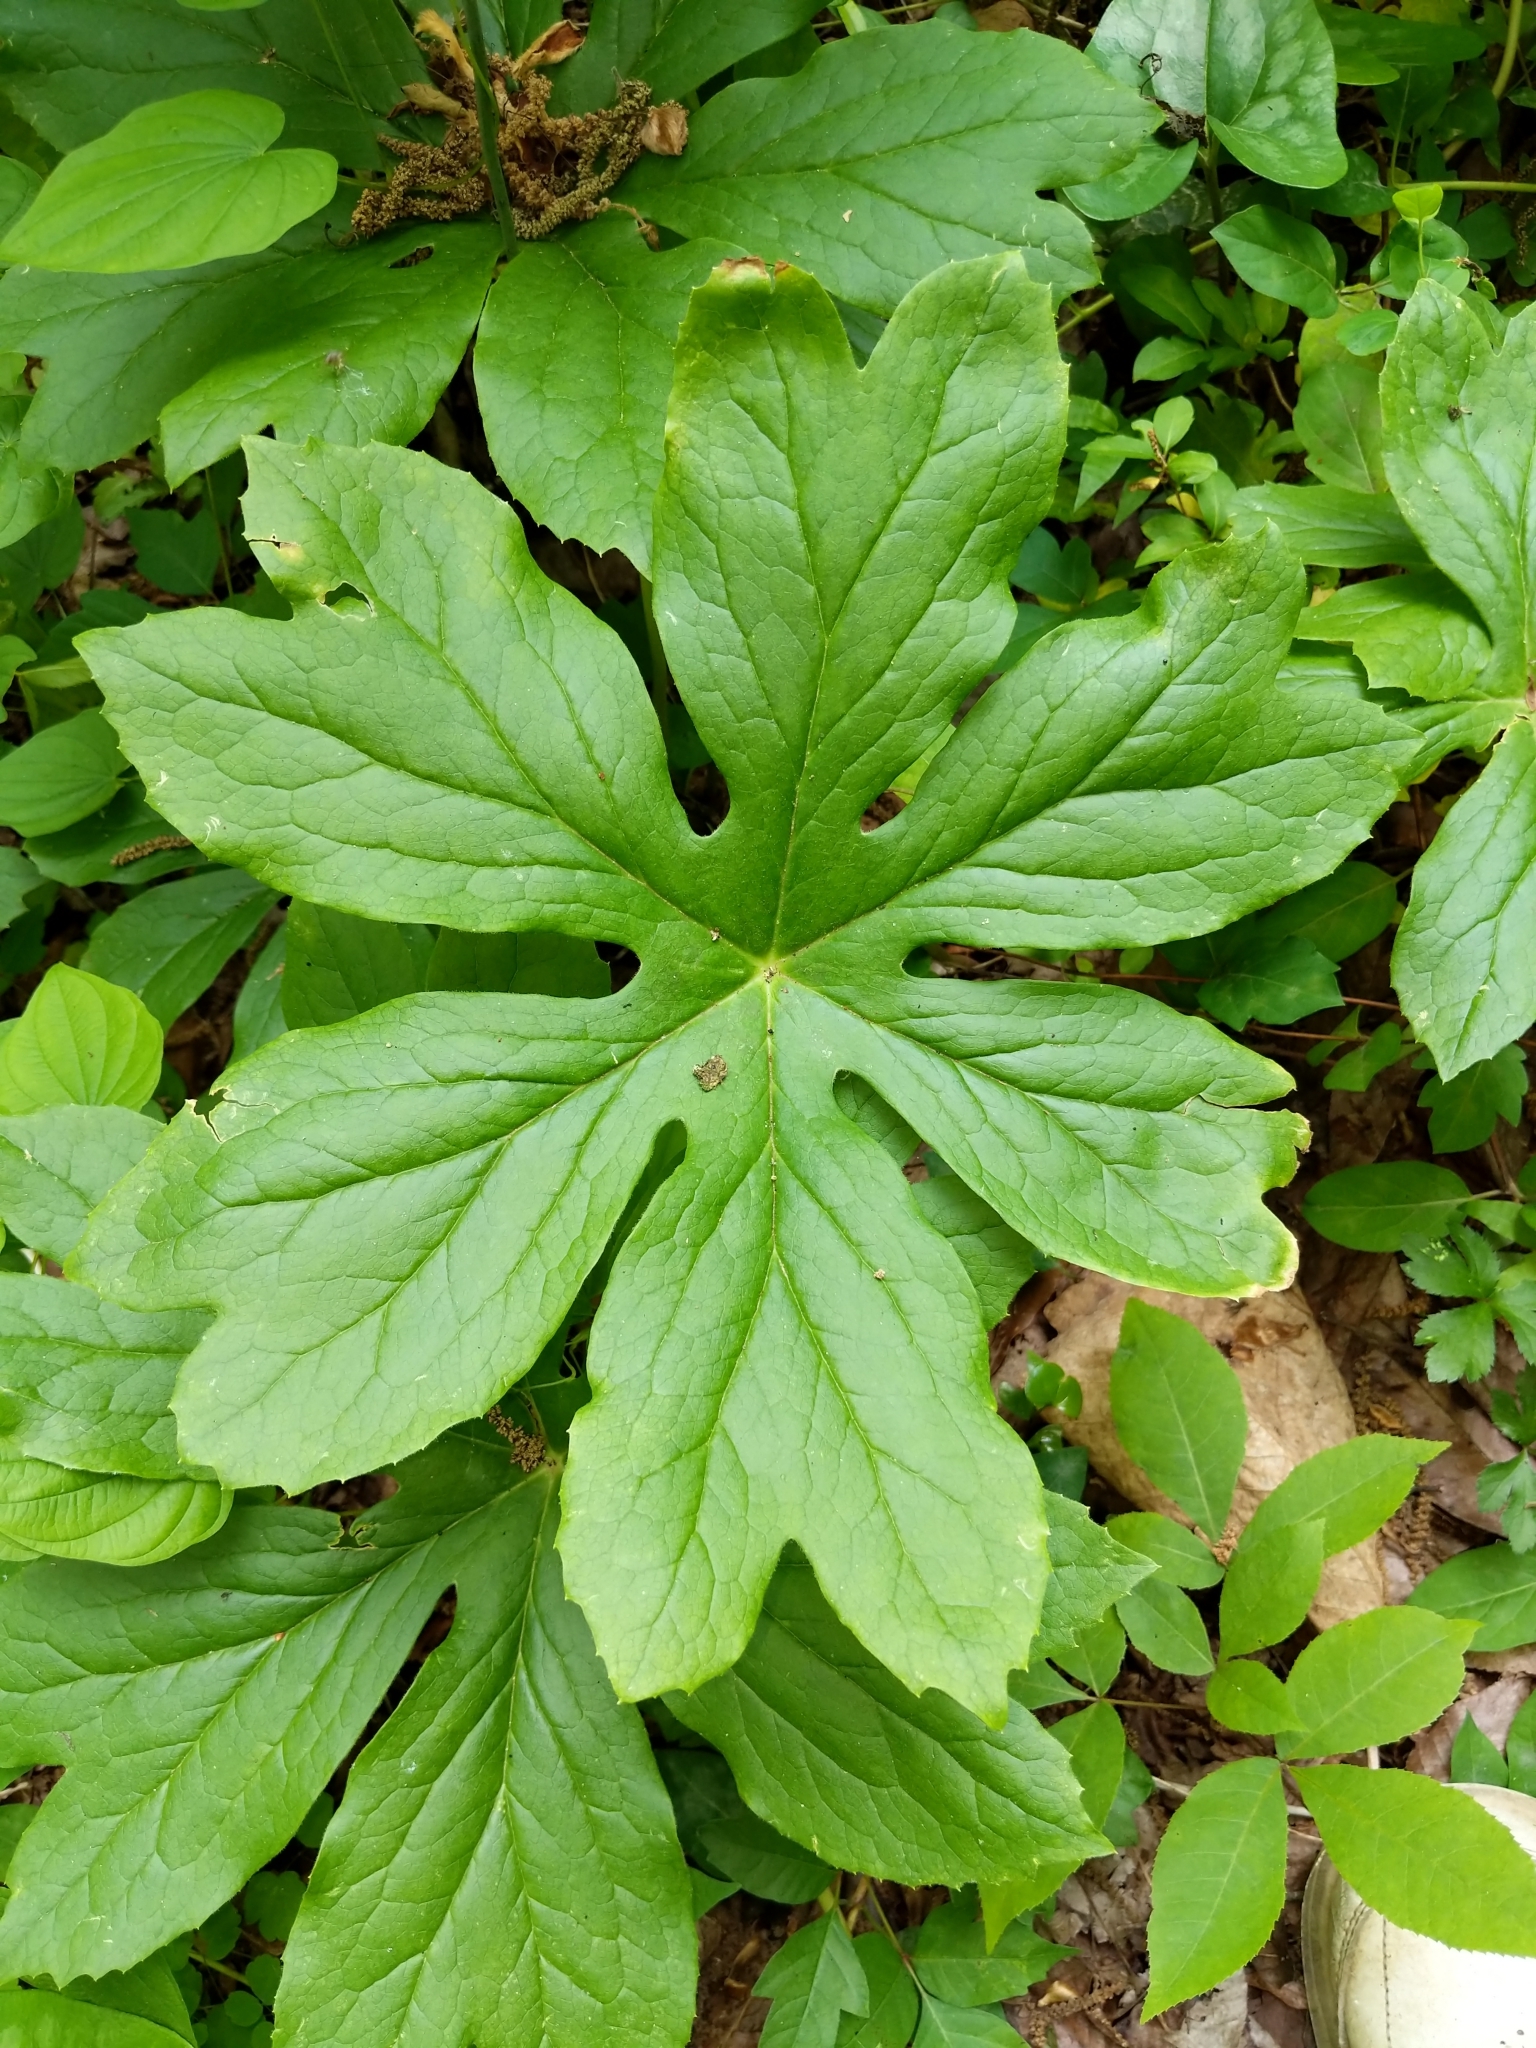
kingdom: Plantae
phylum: Tracheophyta
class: Magnoliopsida
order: Ranunculales
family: Berberidaceae
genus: Podophyllum
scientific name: Podophyllum peltatum
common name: Wild mandrake
